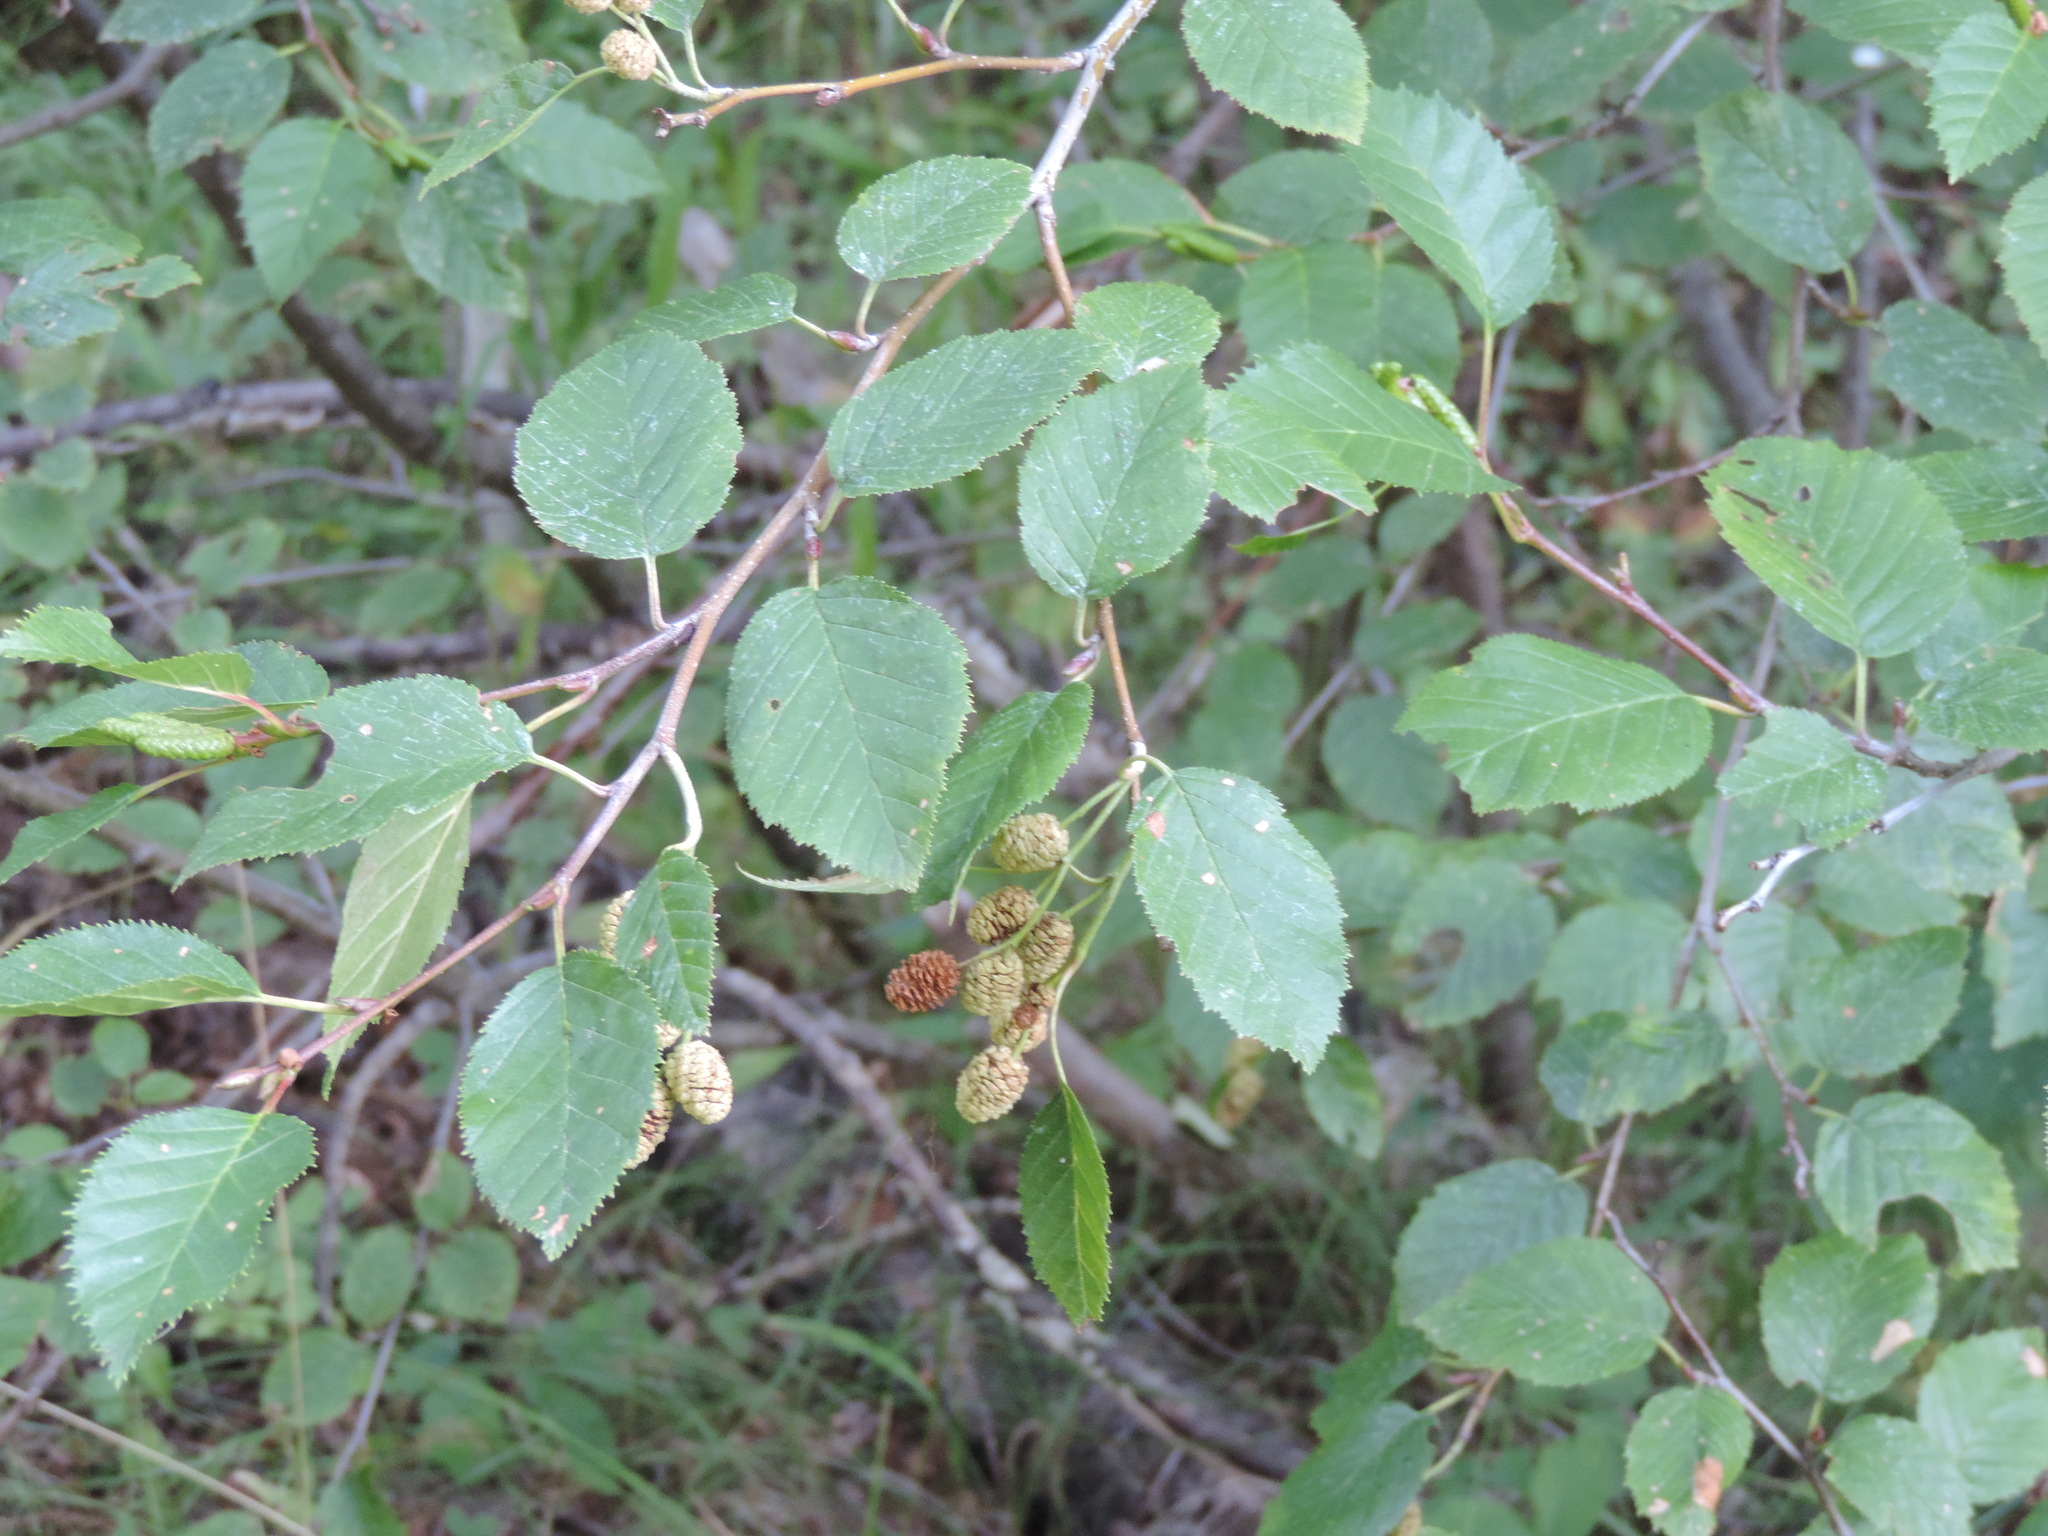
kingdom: Plantae
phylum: Tracheophyta
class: Magnoliopsida
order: Fagales
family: Betulaceae
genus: Alnus
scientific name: Alnus alnobetula
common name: Green alder
